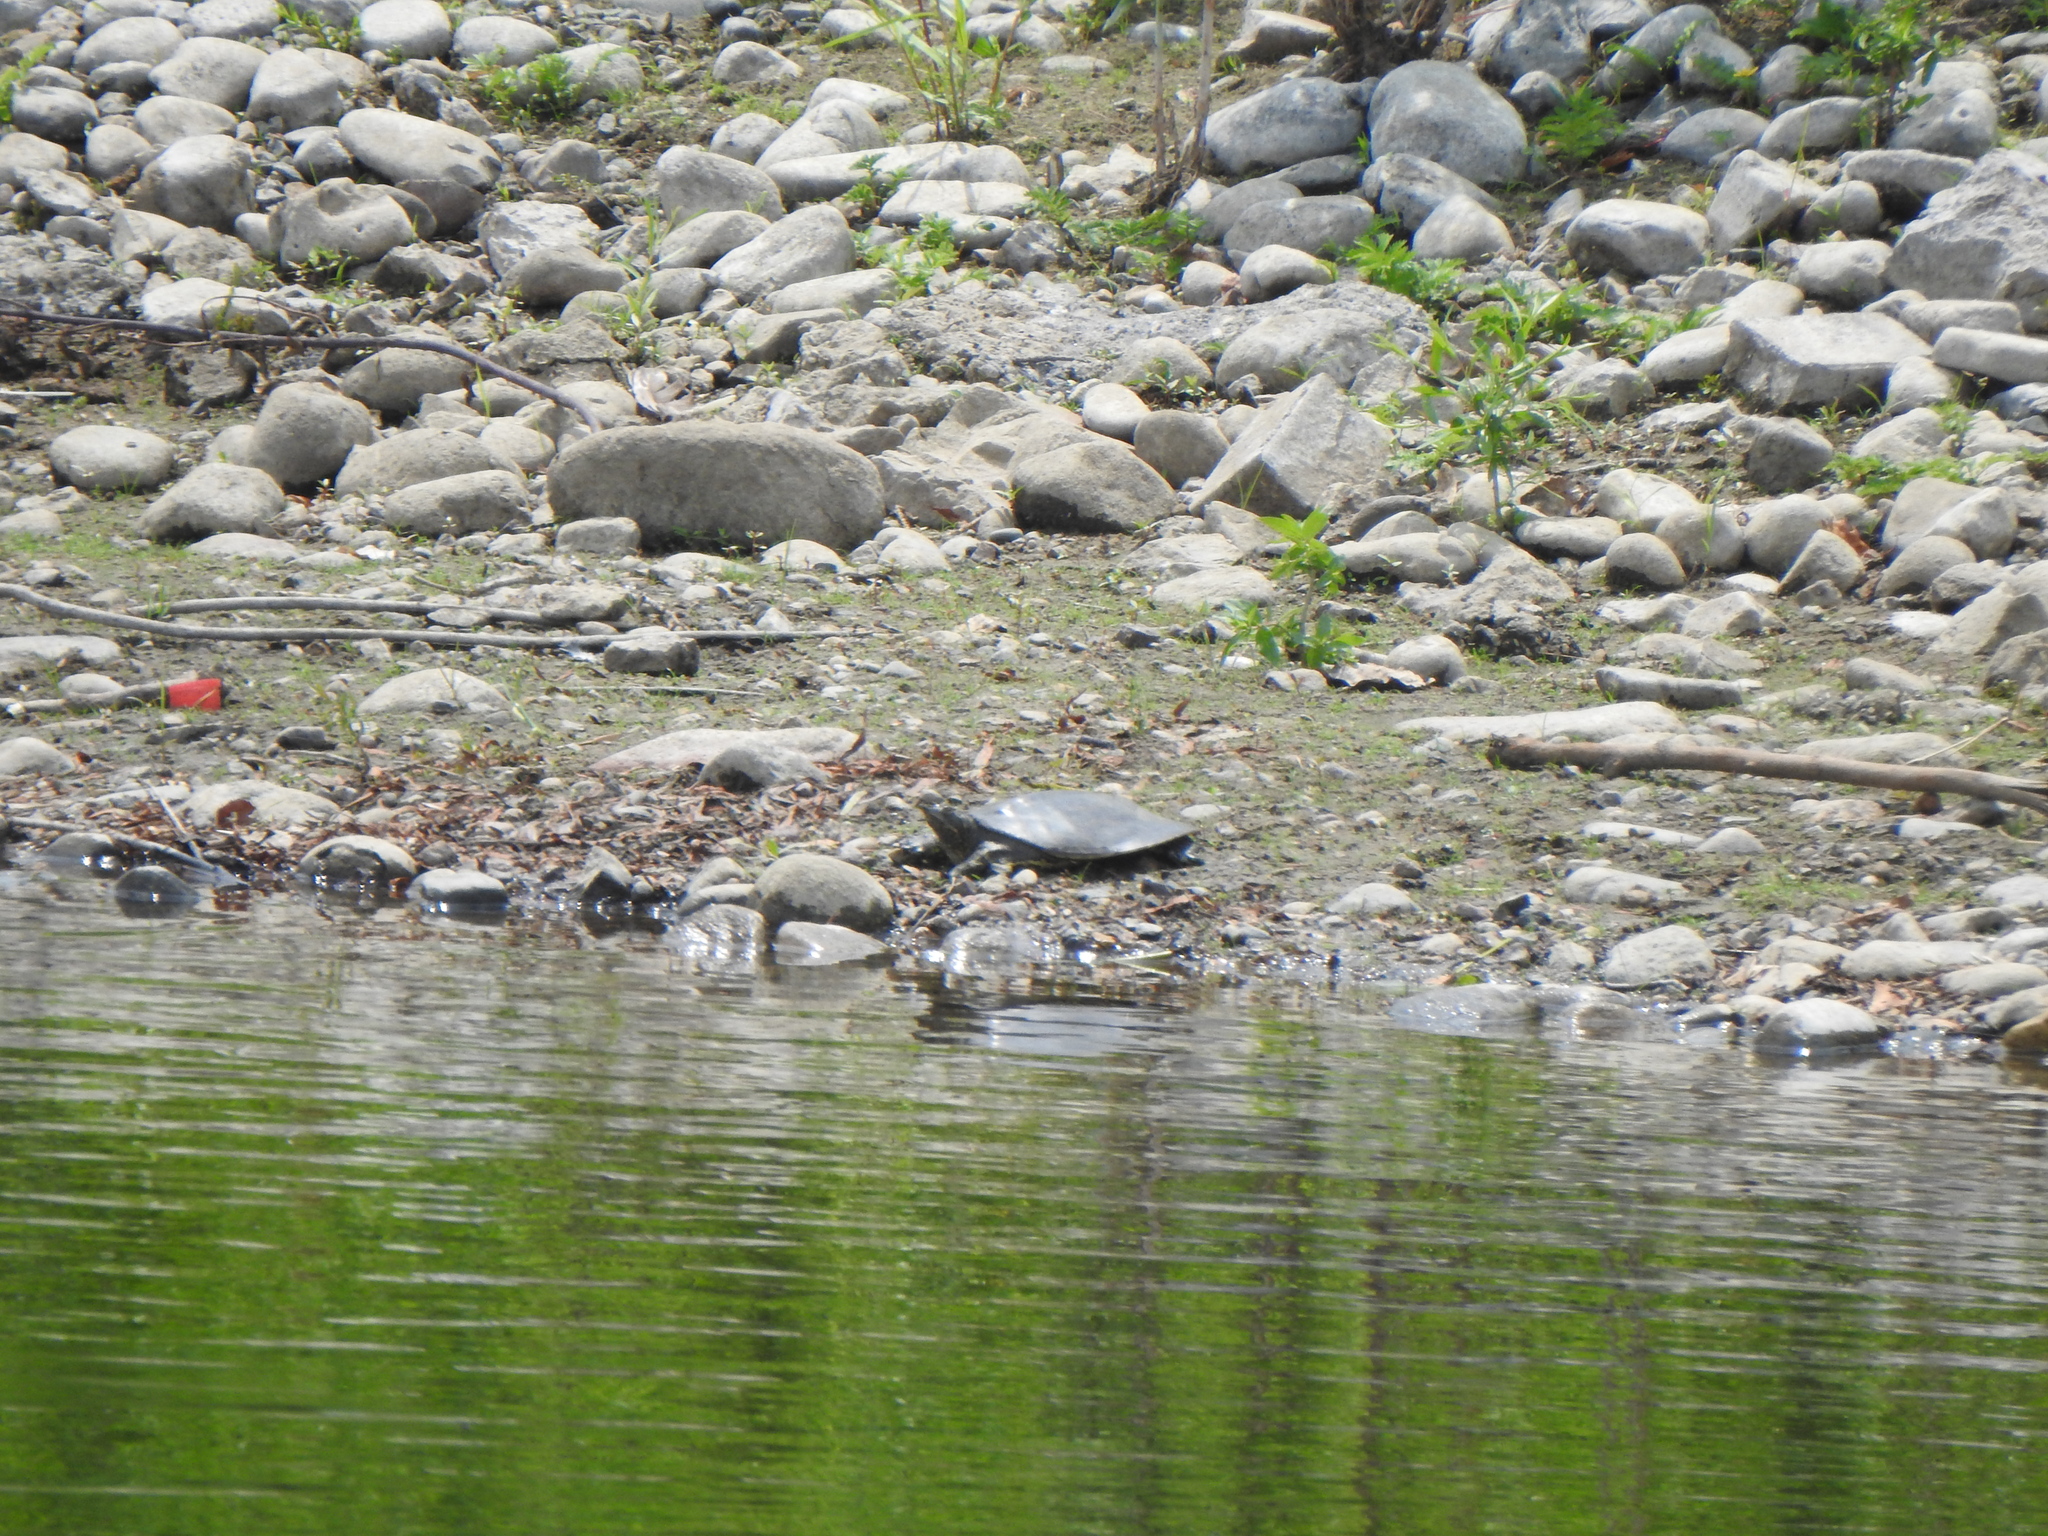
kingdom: Animalia
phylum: Chordata
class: Testudines
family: Trionychidae
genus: Apalone
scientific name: Apalone spinifera
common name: Spiny softshell turtle
